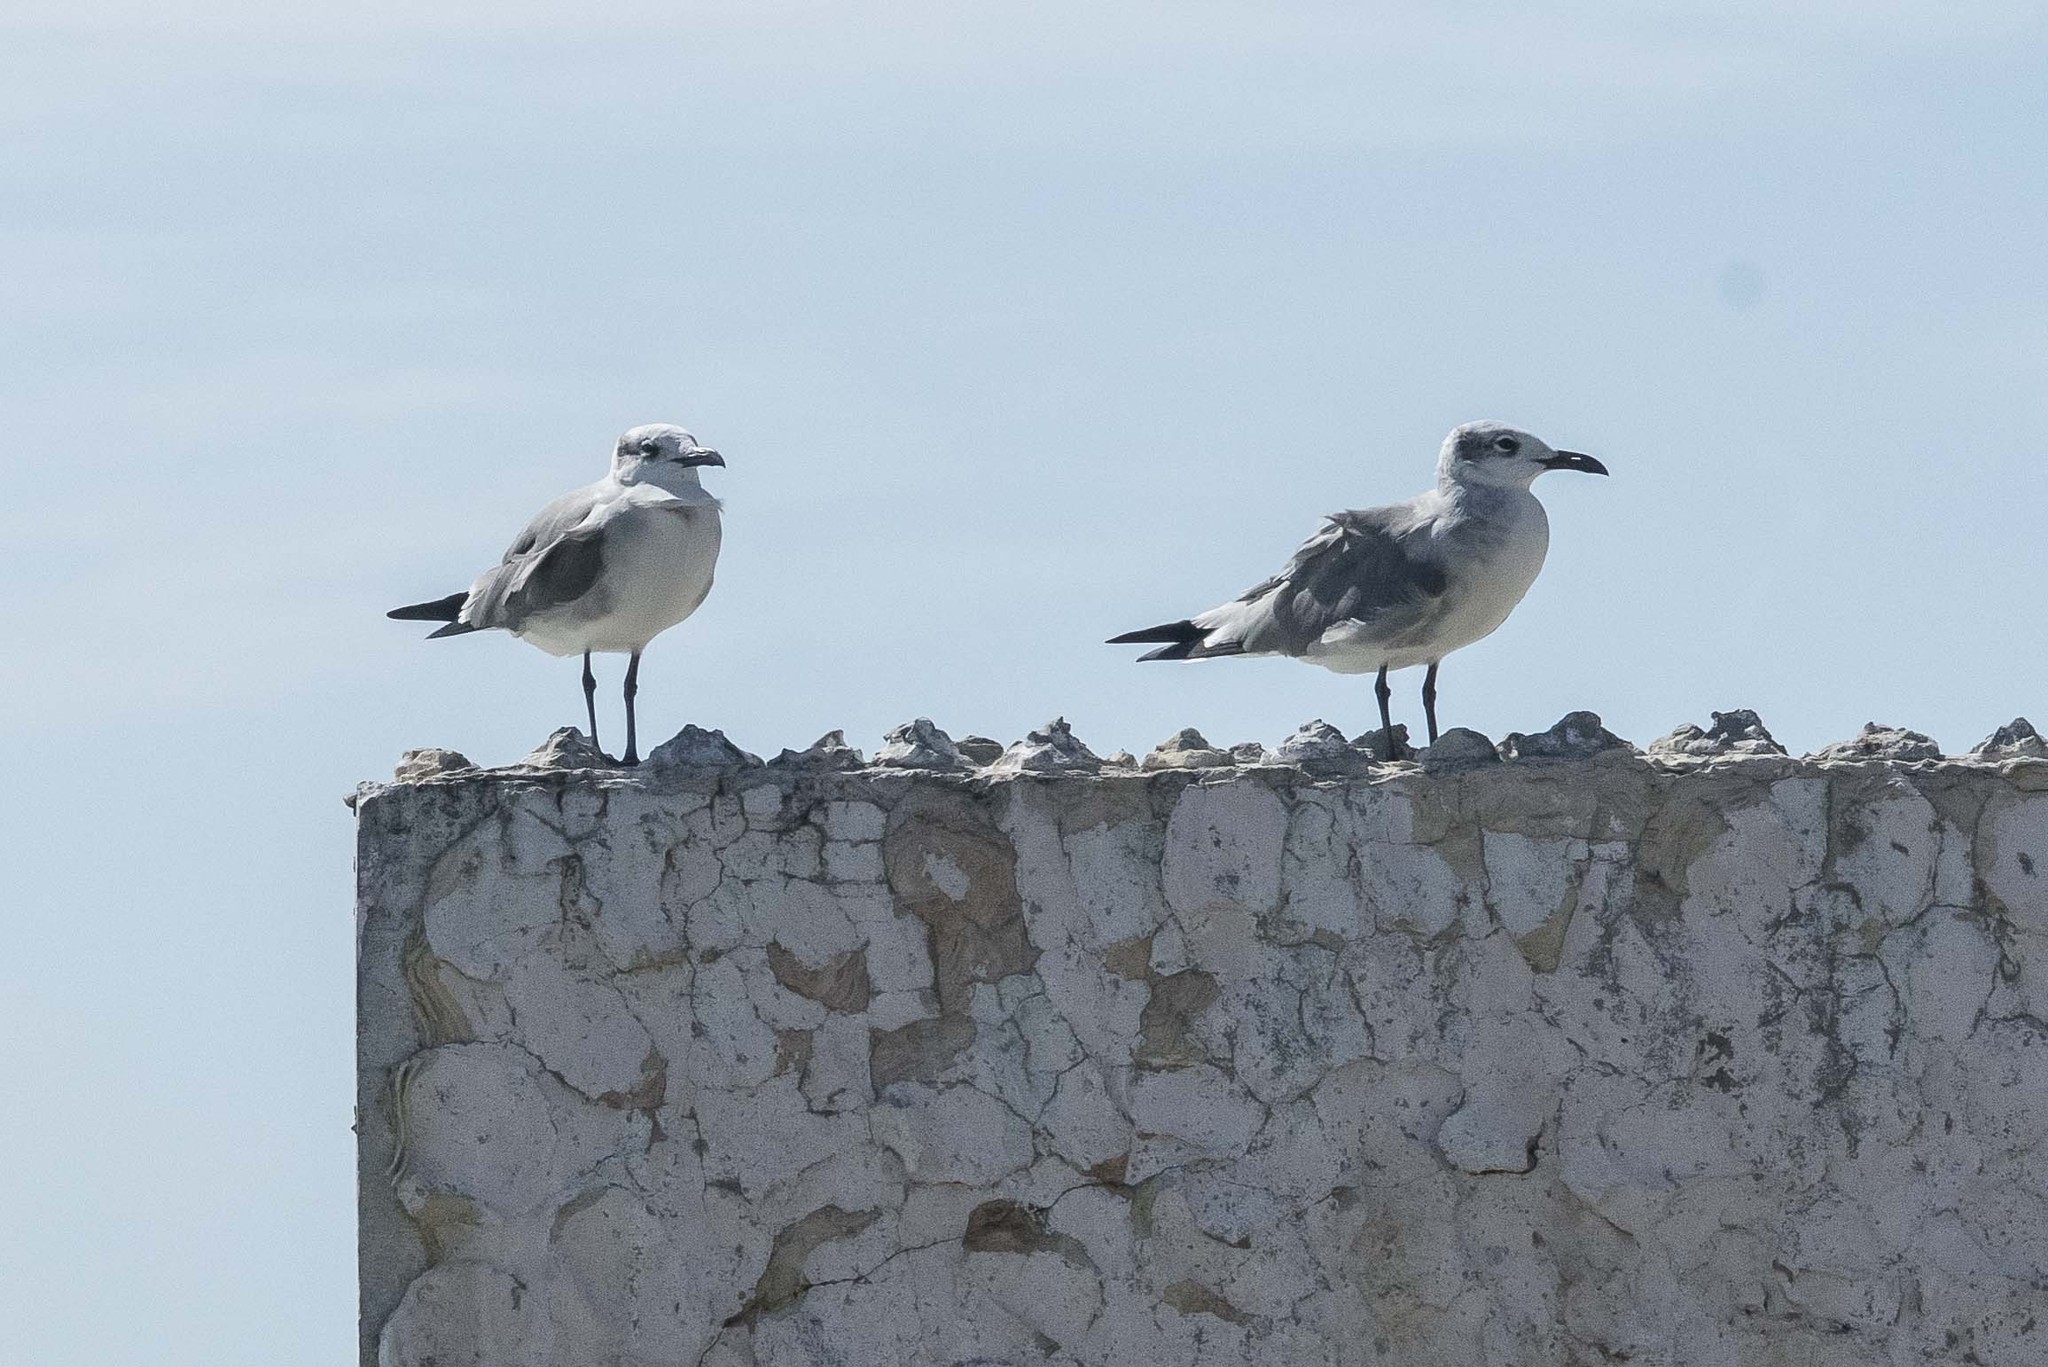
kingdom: Animalia
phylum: Chordata
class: Aves
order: Charadriiformes
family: Laridae
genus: Leucophaeus
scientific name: Leucophaeus atricilla
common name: Laughing gull
